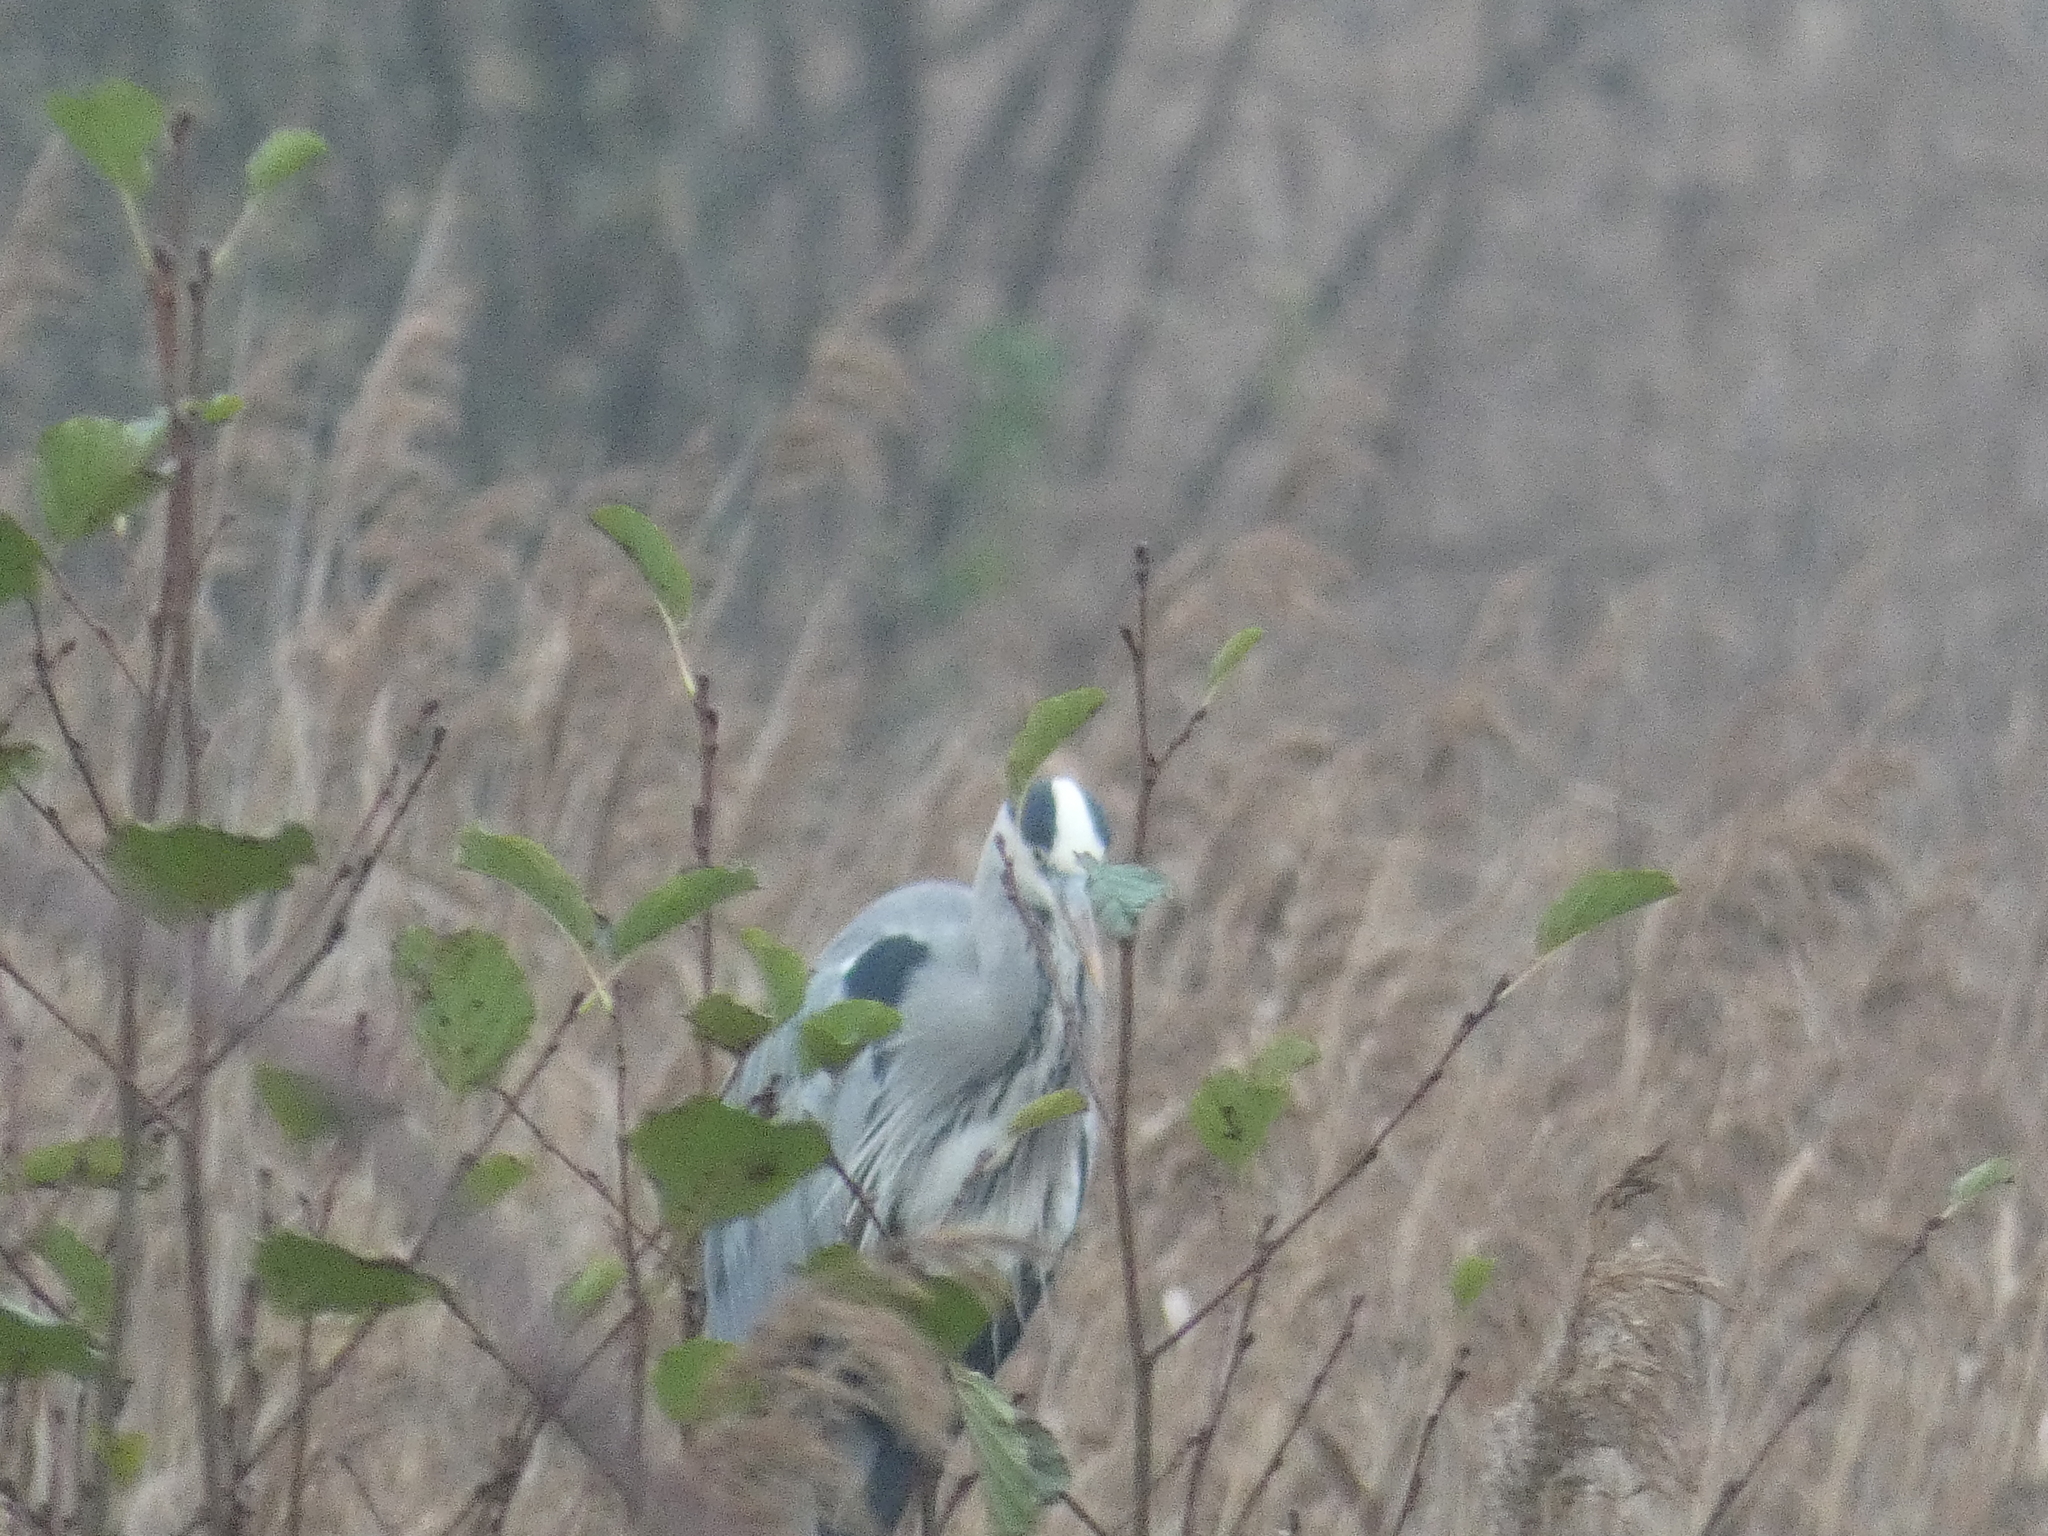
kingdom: Animalia
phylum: Chordata
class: Aves
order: Pelecaniformes
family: Ardeidae
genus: Ardea
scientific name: Ardea cinerea
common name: Grey heron
